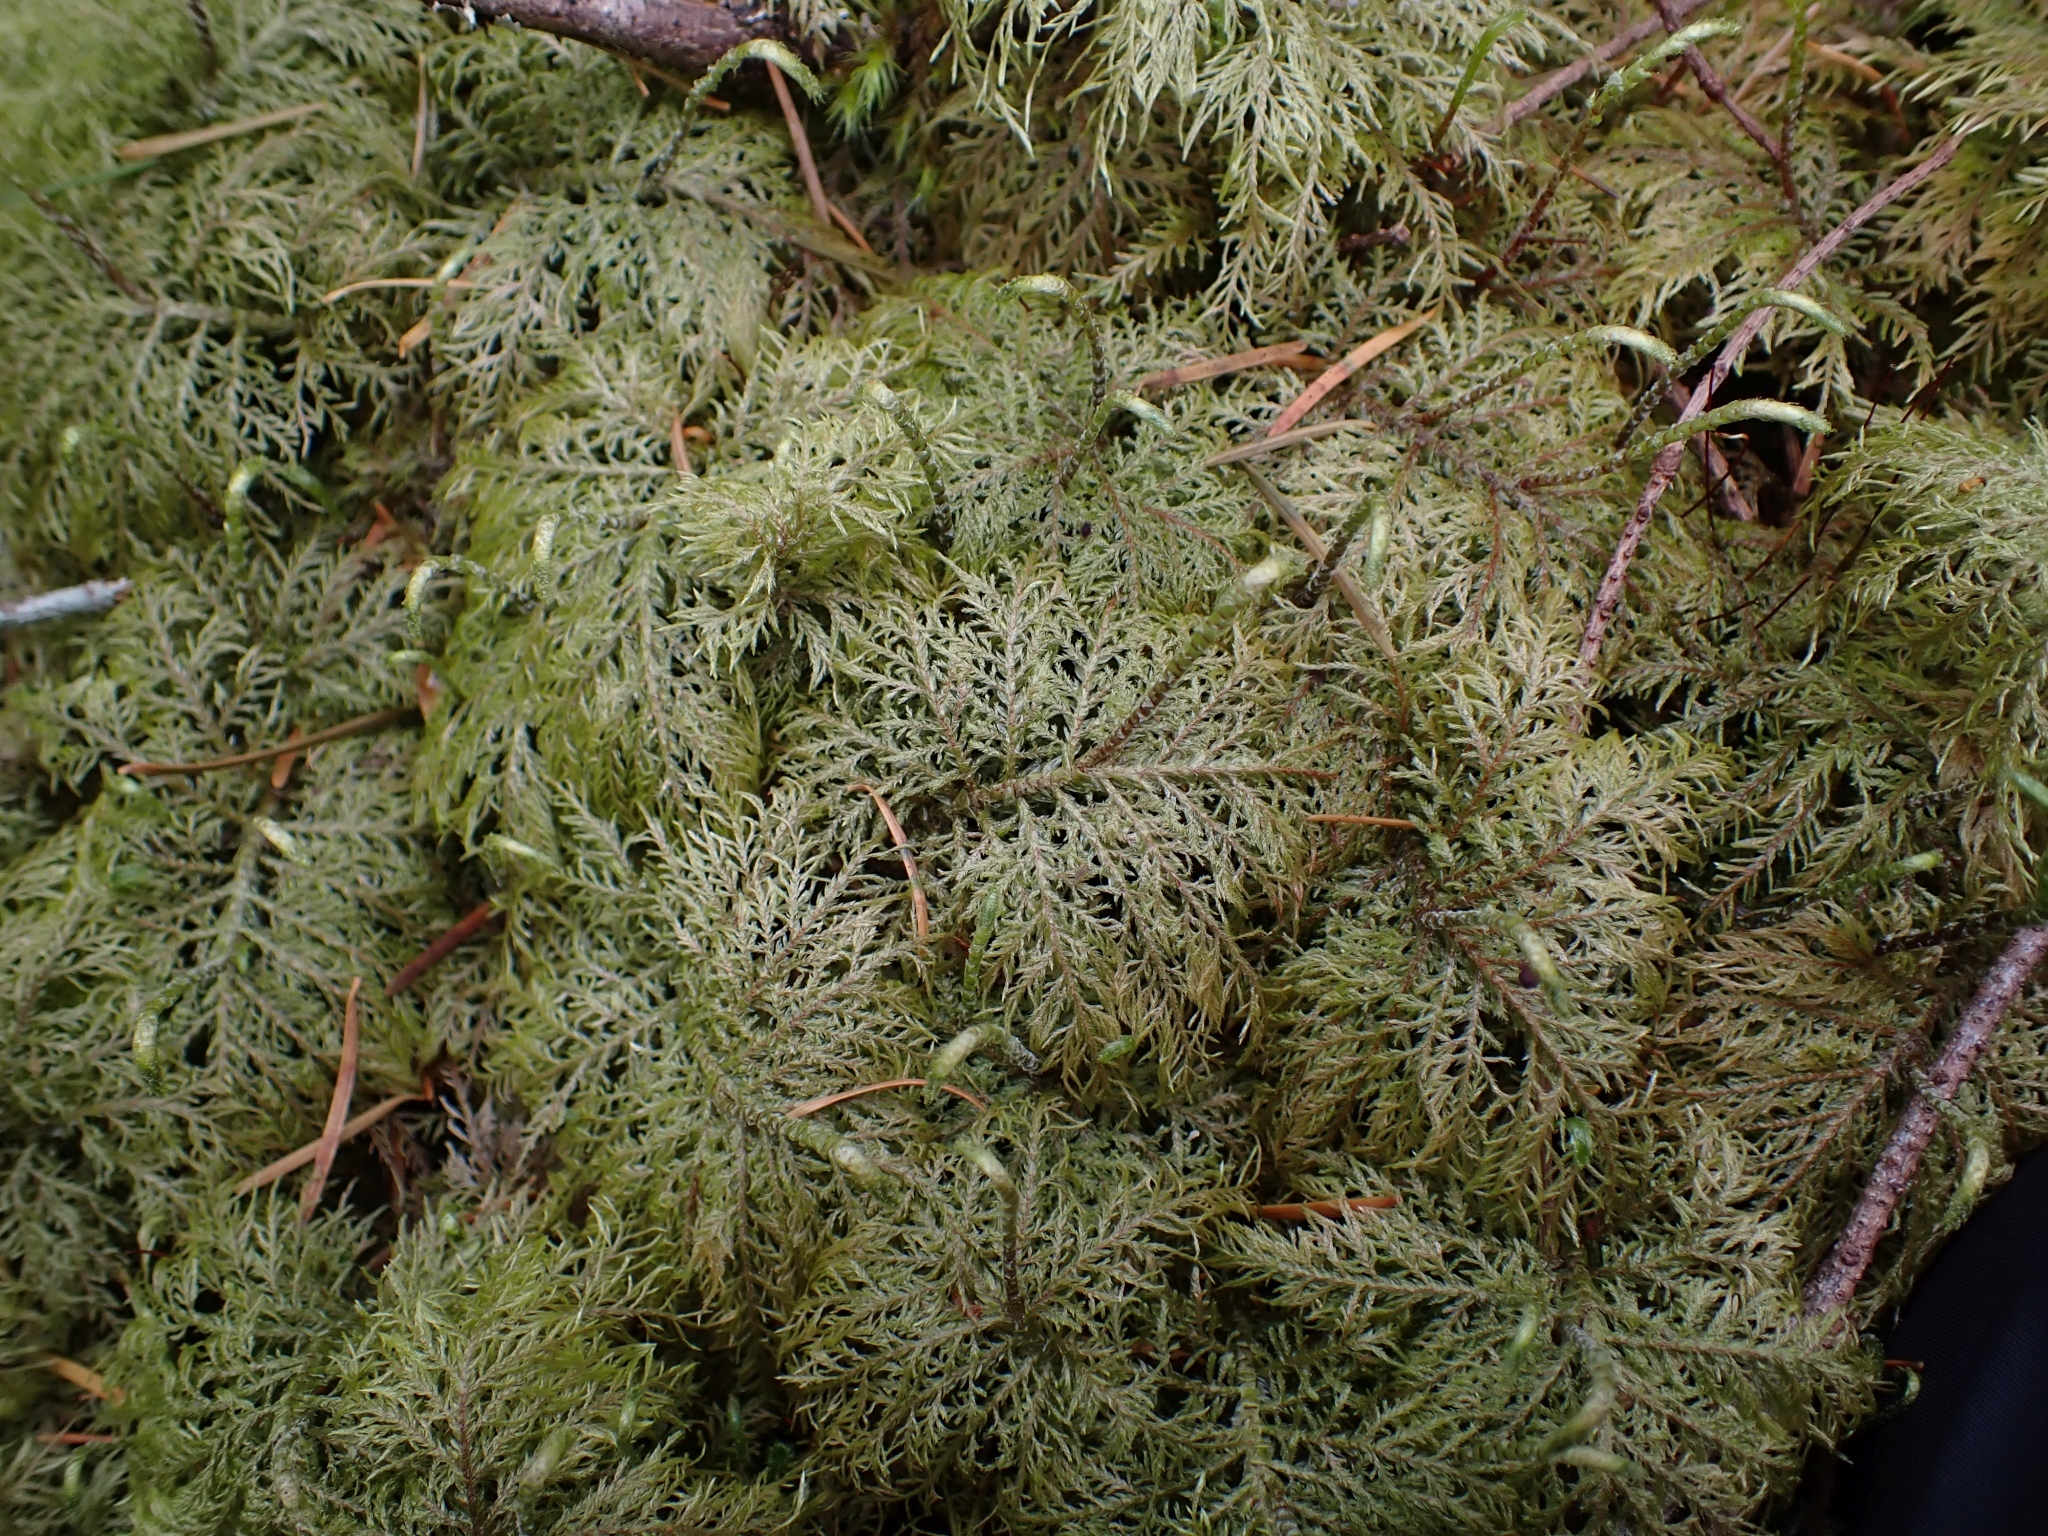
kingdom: Plantae
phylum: Bryophyta
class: Bryopsida
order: Hypnales
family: Hylocomiaceae
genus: Hylocomium
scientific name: Hylocomium splendens
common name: Stairstep moss
